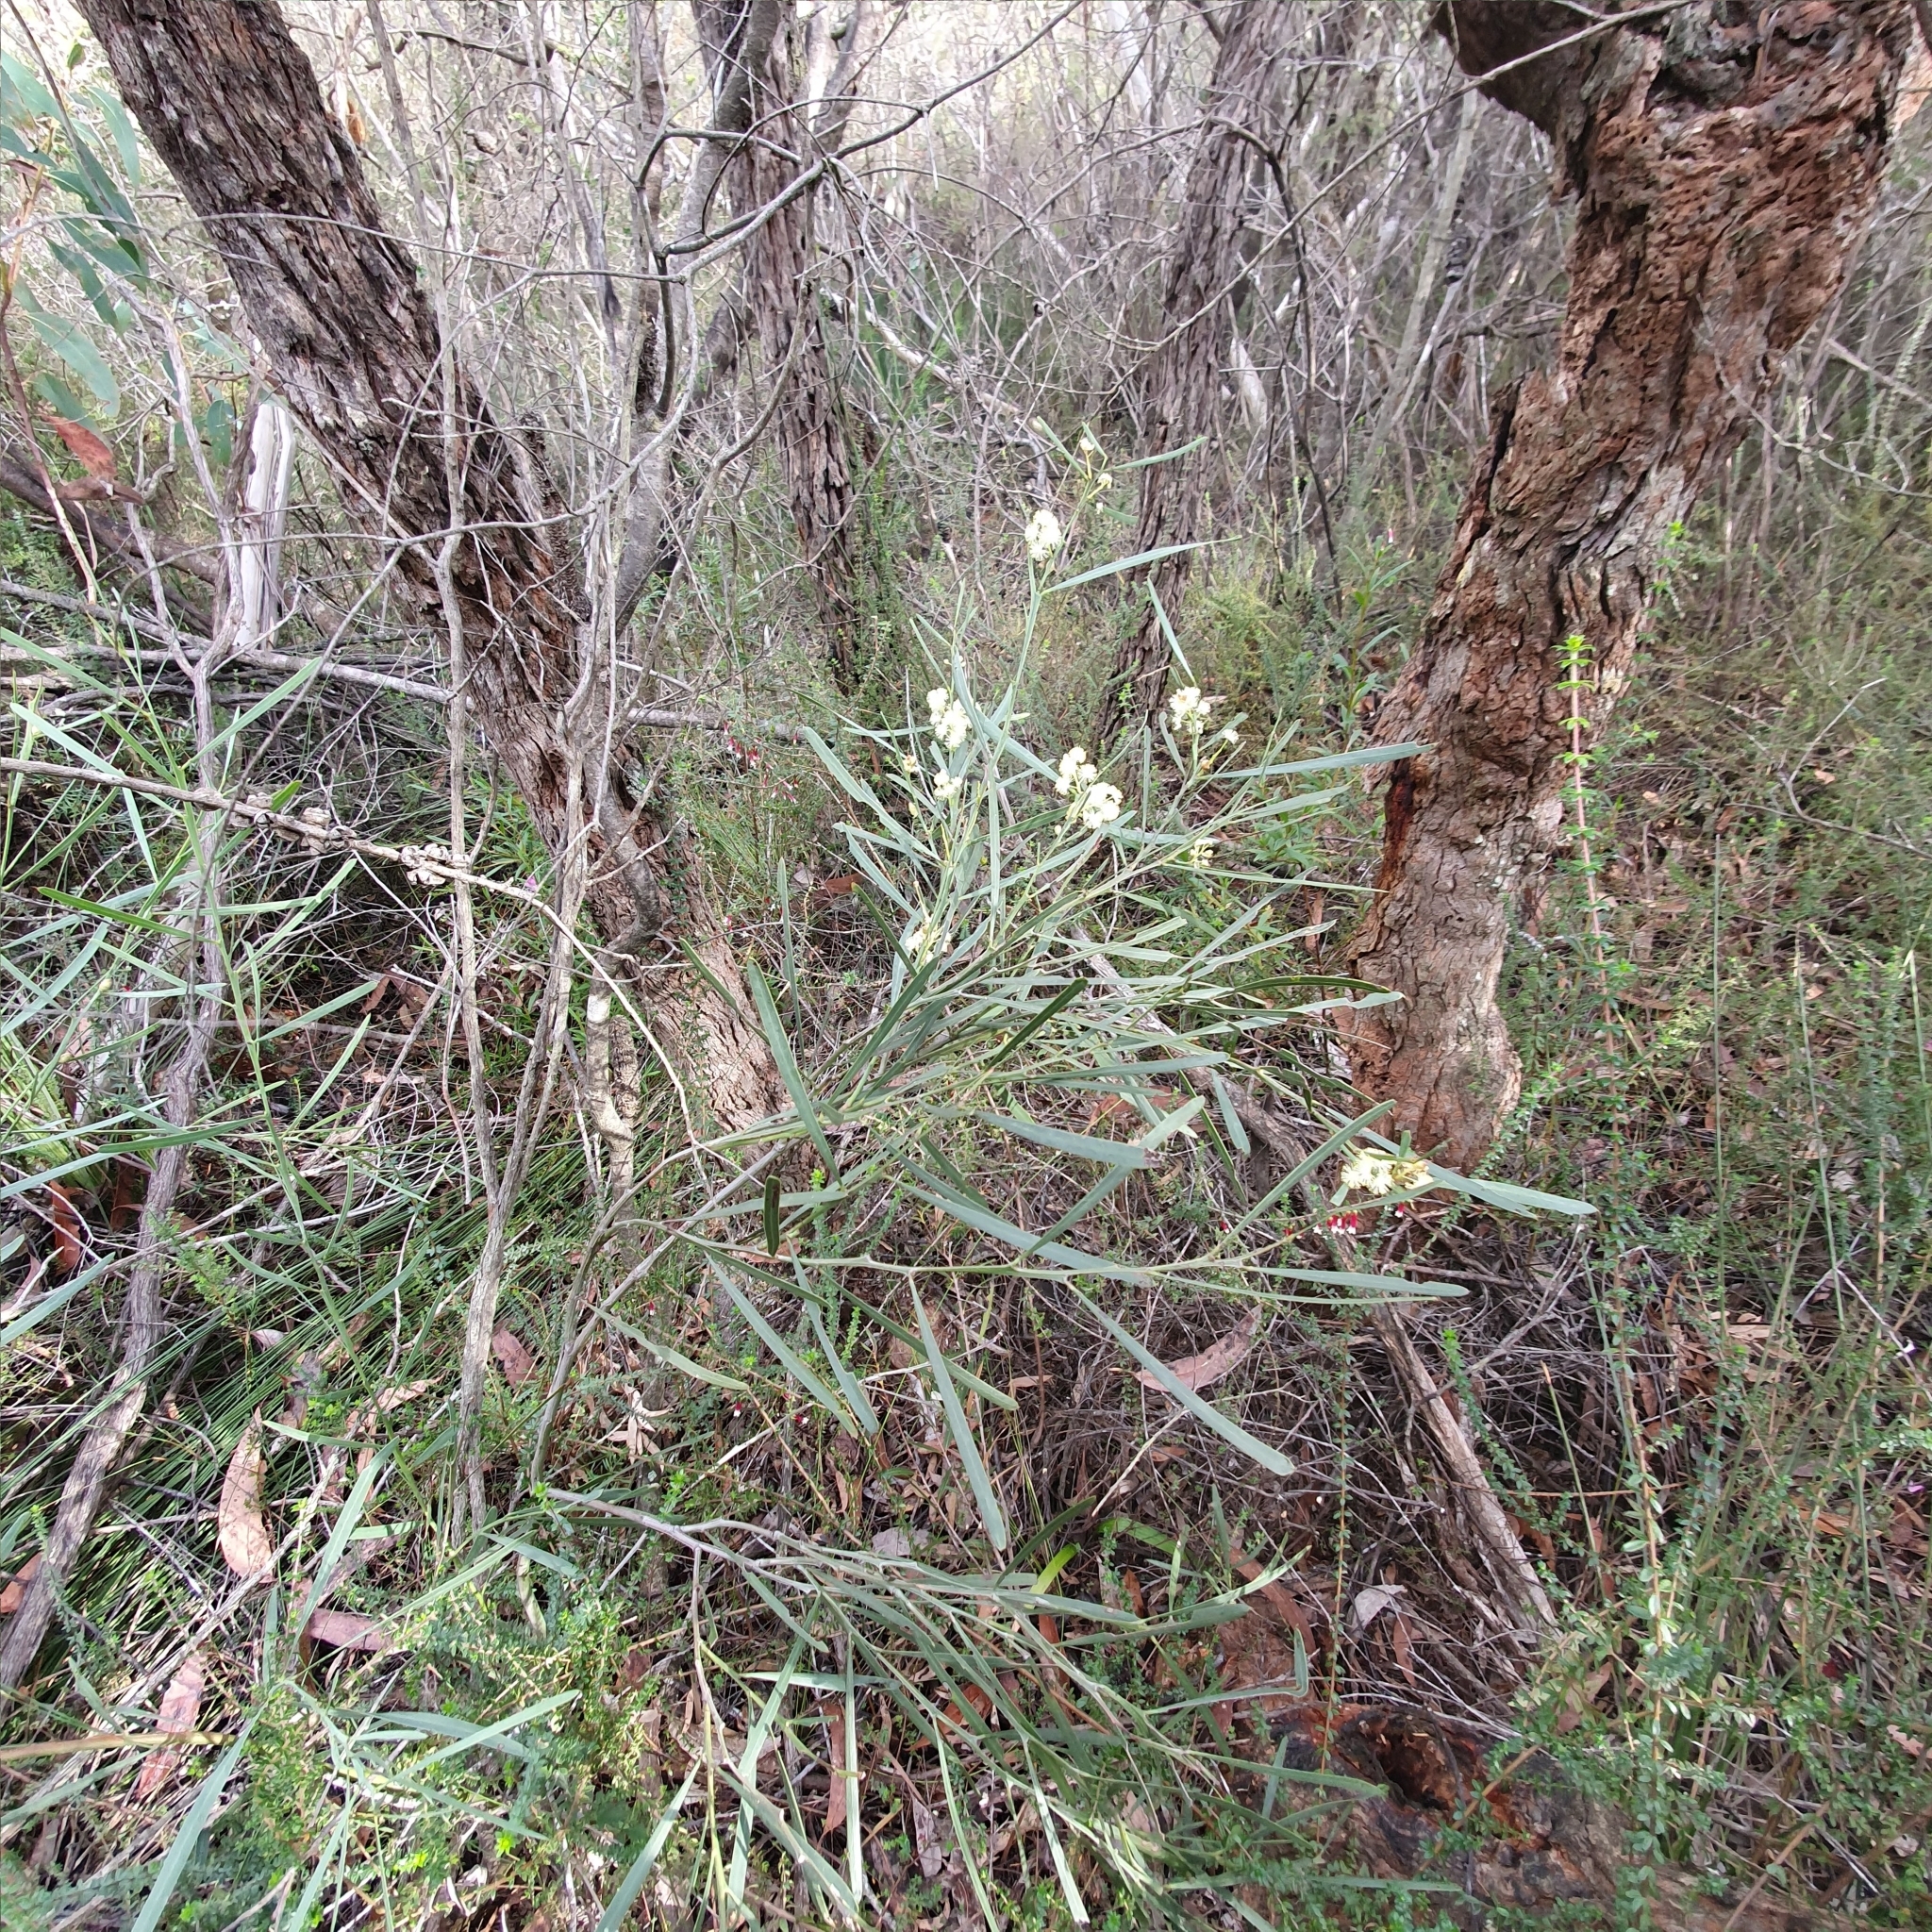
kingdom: Plantae
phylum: Tracheophyta
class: Magnoliopsida
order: Fabales
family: Fabaceae
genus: Acacia
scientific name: Acacia suaveolens
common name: Sweet acacia
